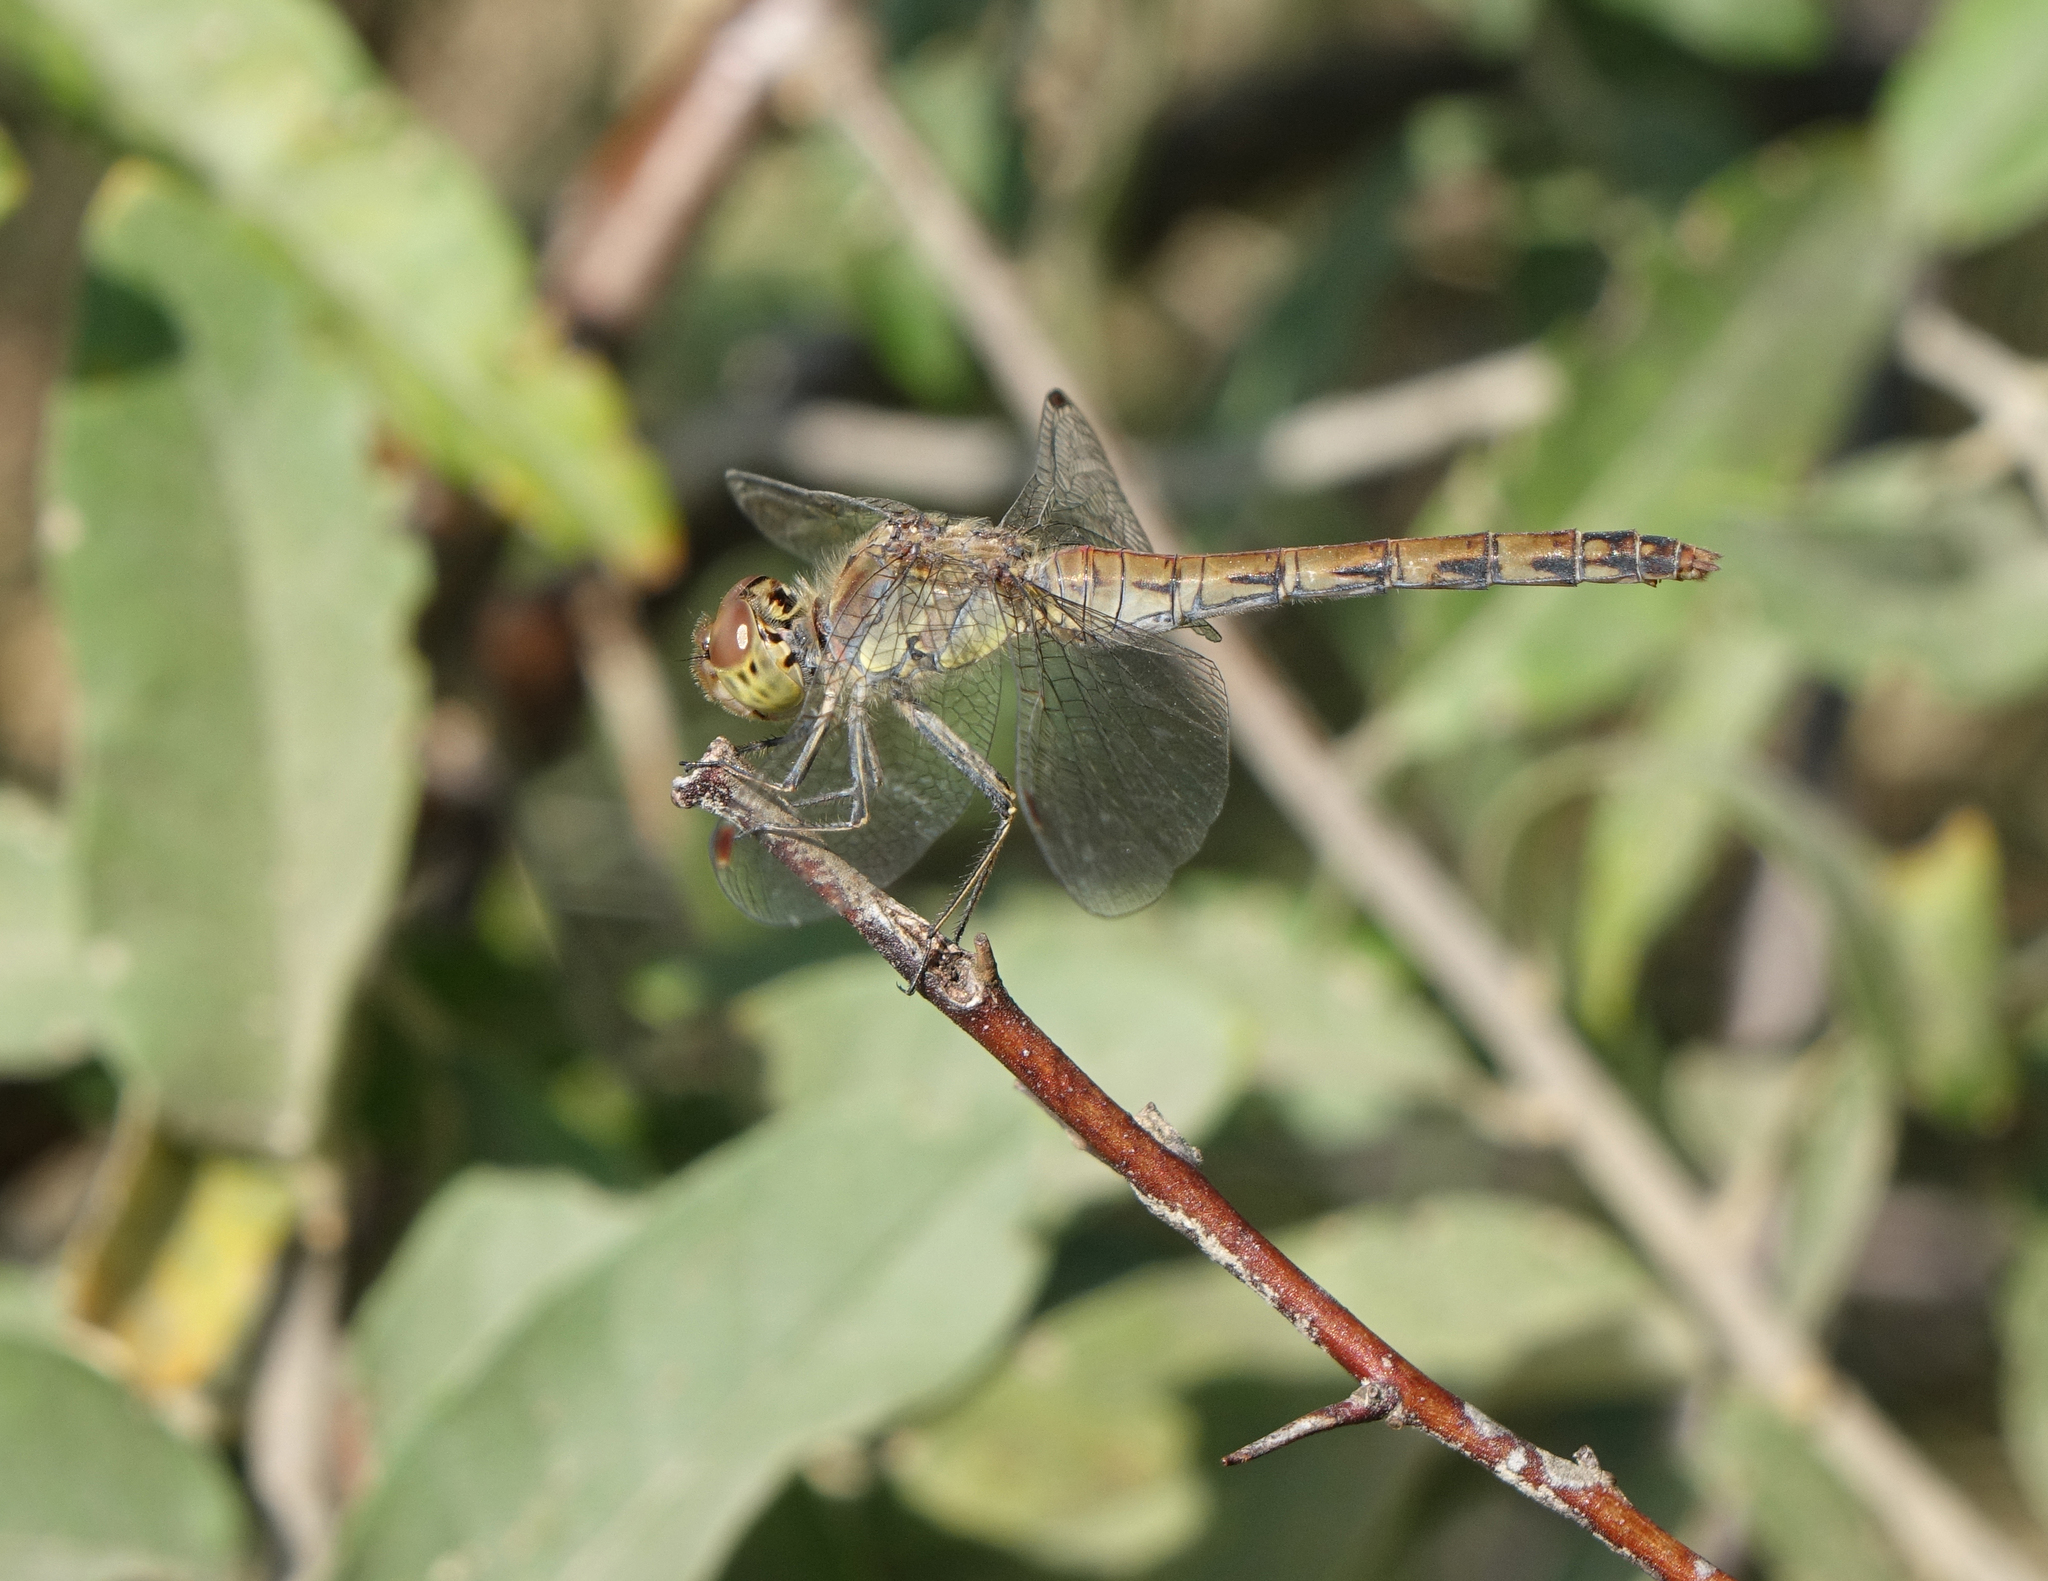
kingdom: Animalia
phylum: Arthropoda
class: Insecta
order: Odonata
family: Libellulidae
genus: Sympetrum
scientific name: Sympetrum striolatum
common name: Common darter
